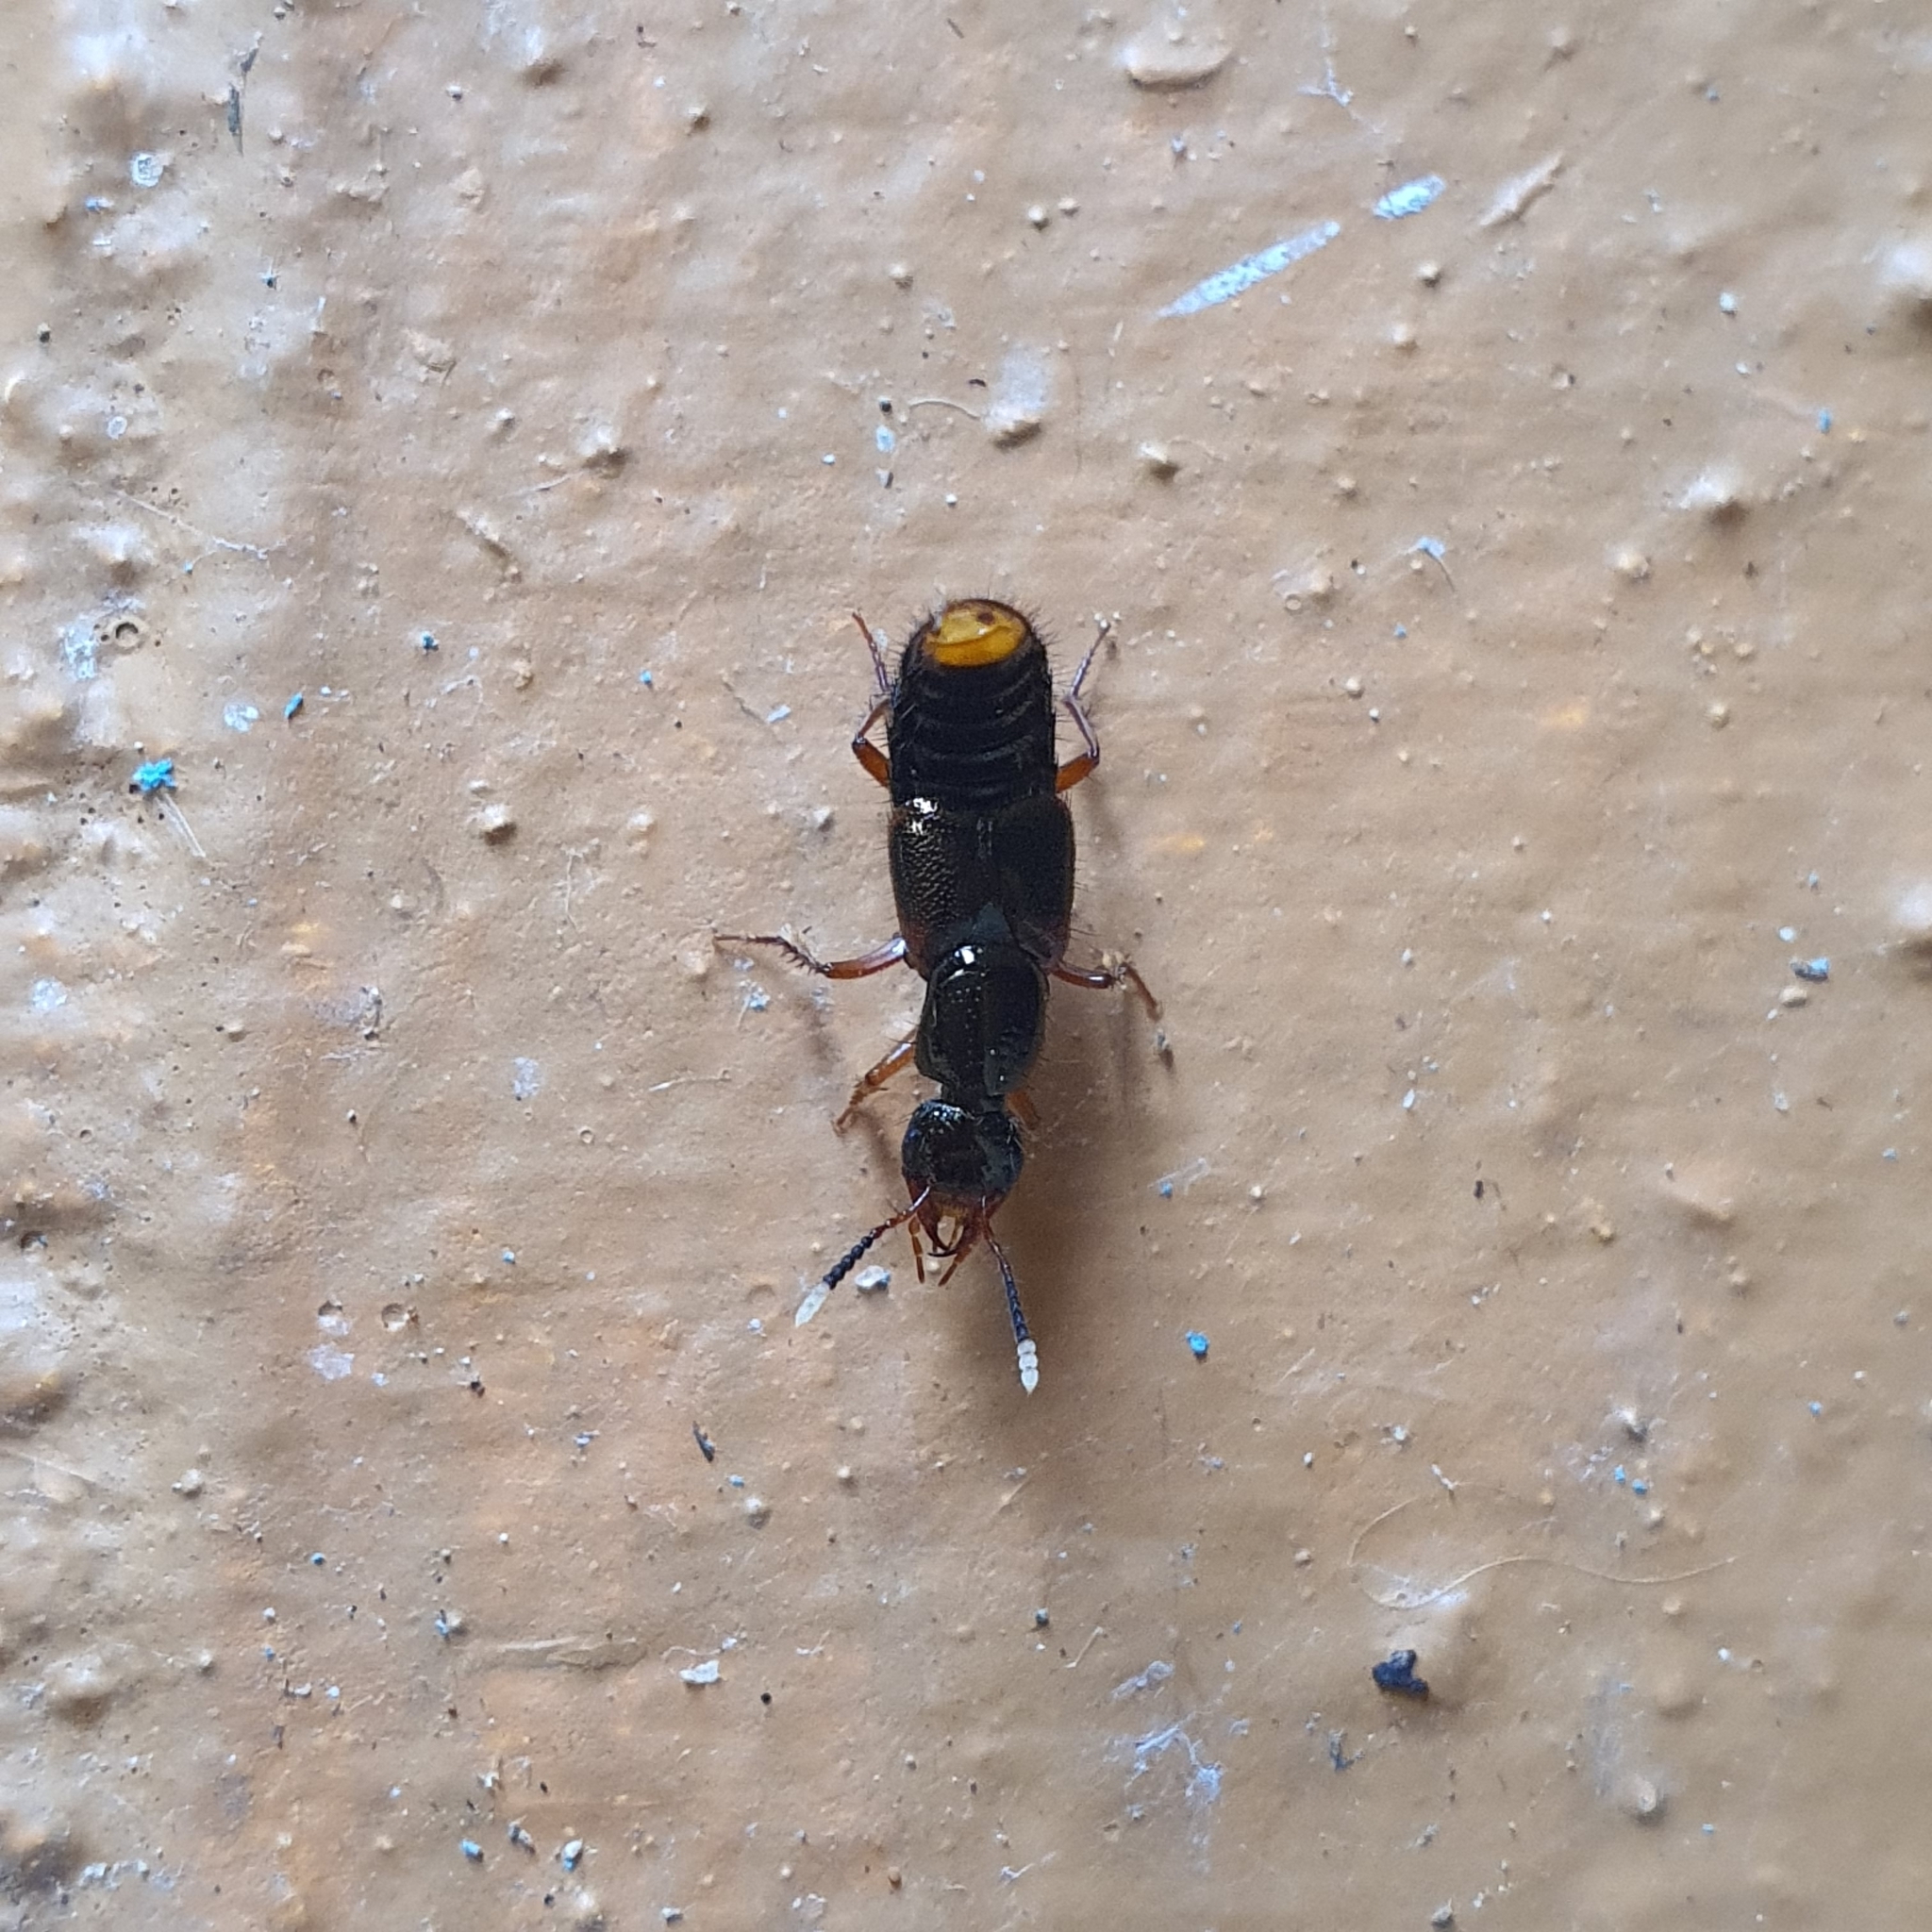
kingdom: Animalia
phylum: Arthropoda
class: Insecta
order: Coleoptera
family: Staphylinidae
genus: Hesperus
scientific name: Hesperus haemorrhoidalis
